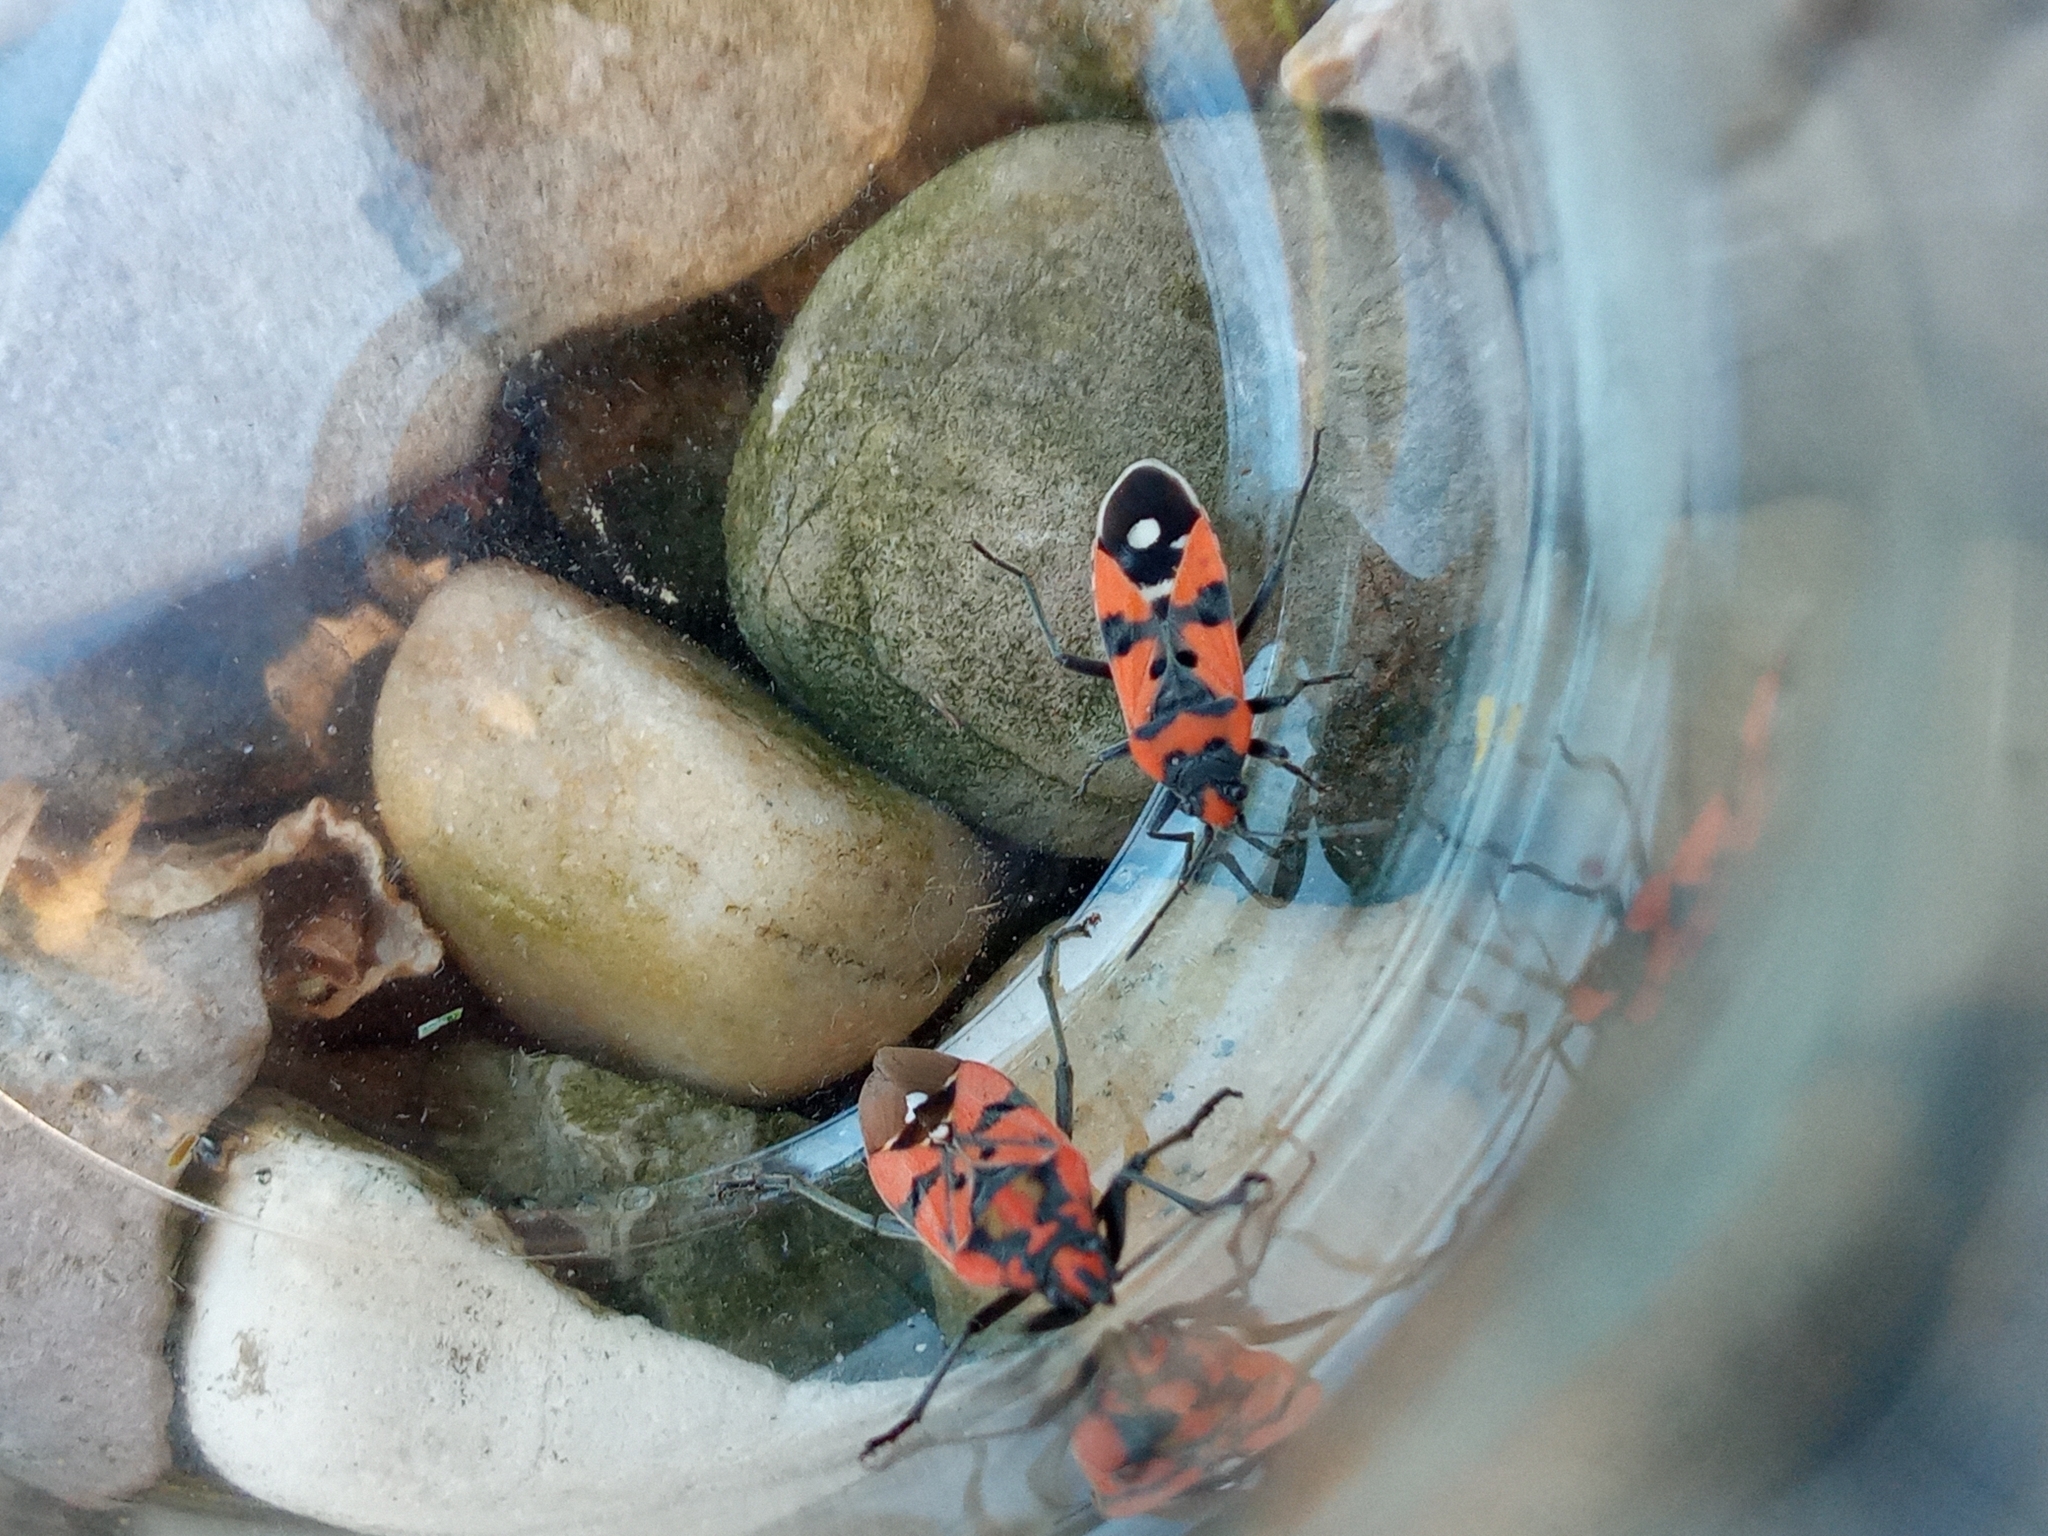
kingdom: Animalia
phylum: Arthropoda
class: Insecta
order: Hemiptera
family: Lygaeidae
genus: Spilostethus
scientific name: Spilostethus pandurus
